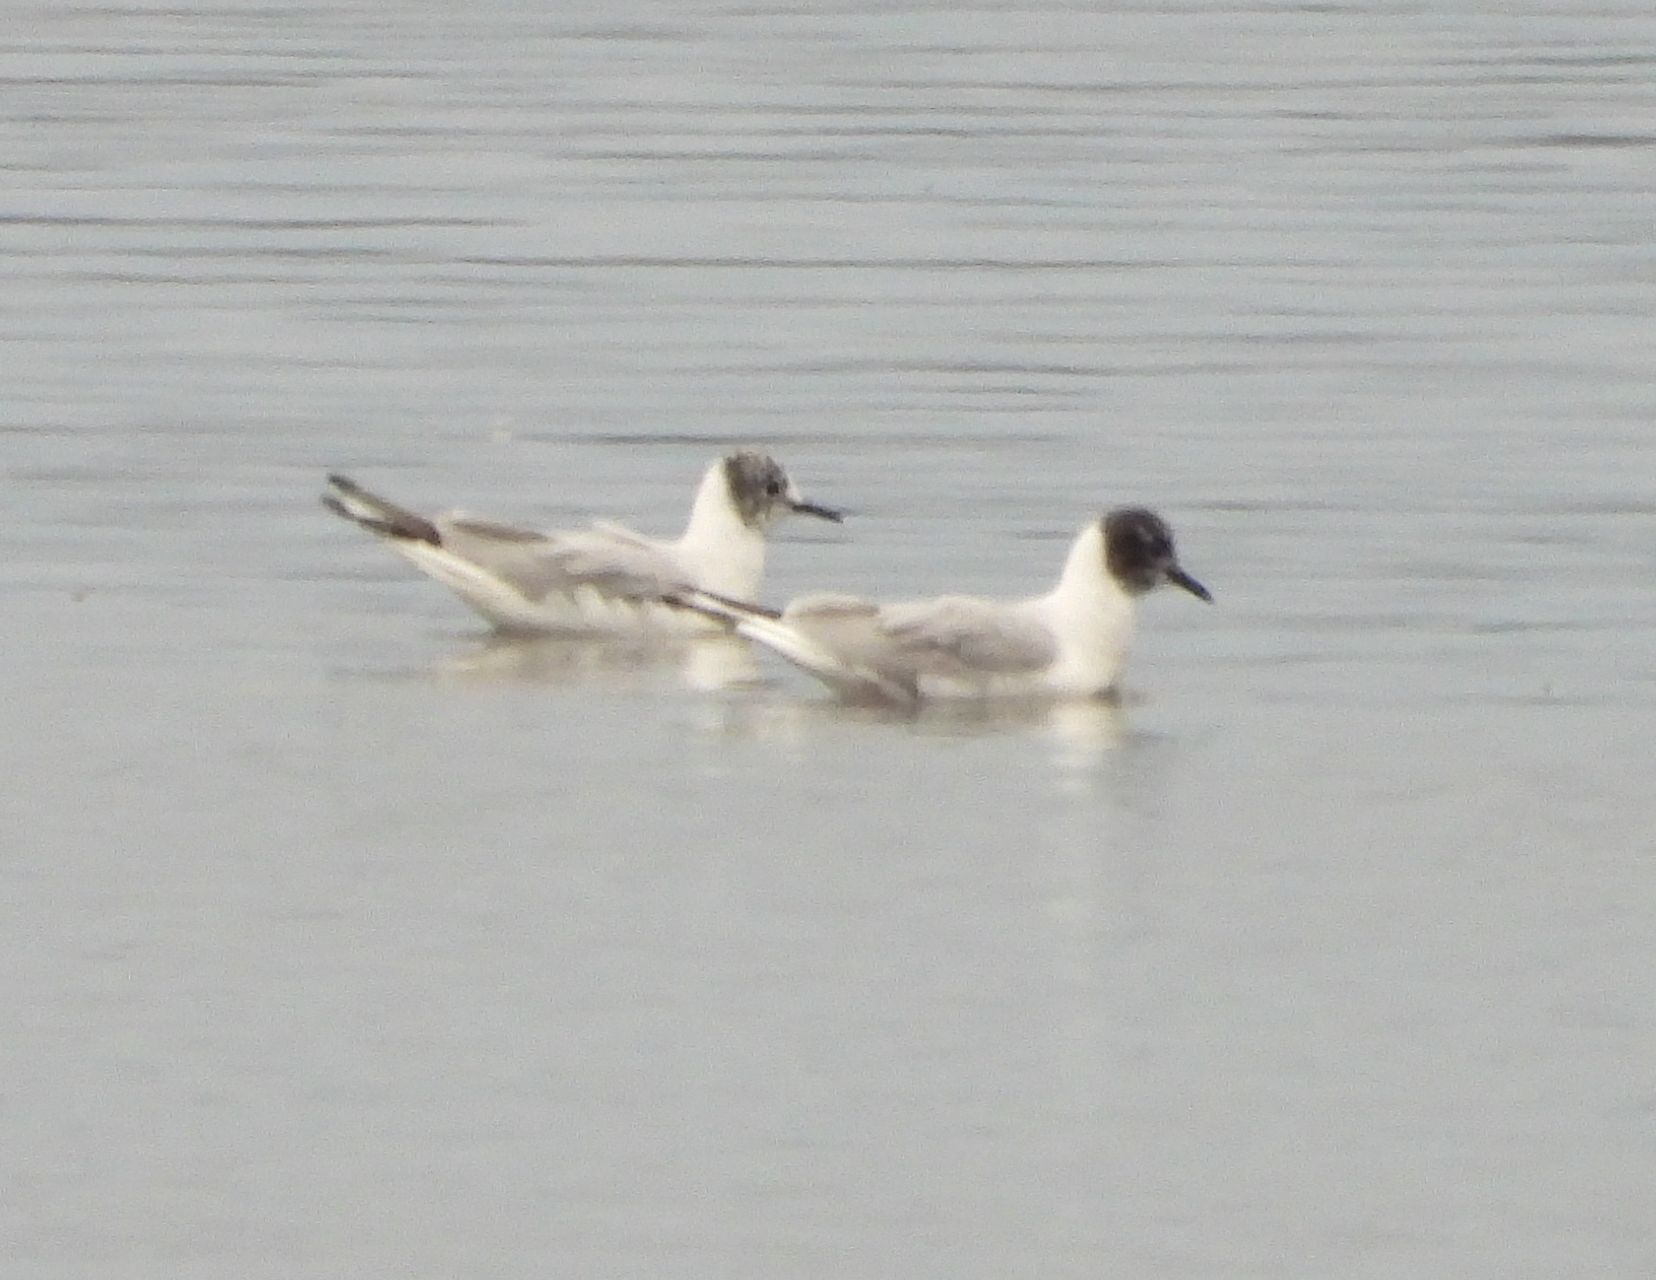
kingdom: Animalia
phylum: Chordata
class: Aves
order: Charadriiformes
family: Laridae
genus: Chroicocephalus
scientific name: Chroicocephalus philadelphia
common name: Bonaparte's gull
